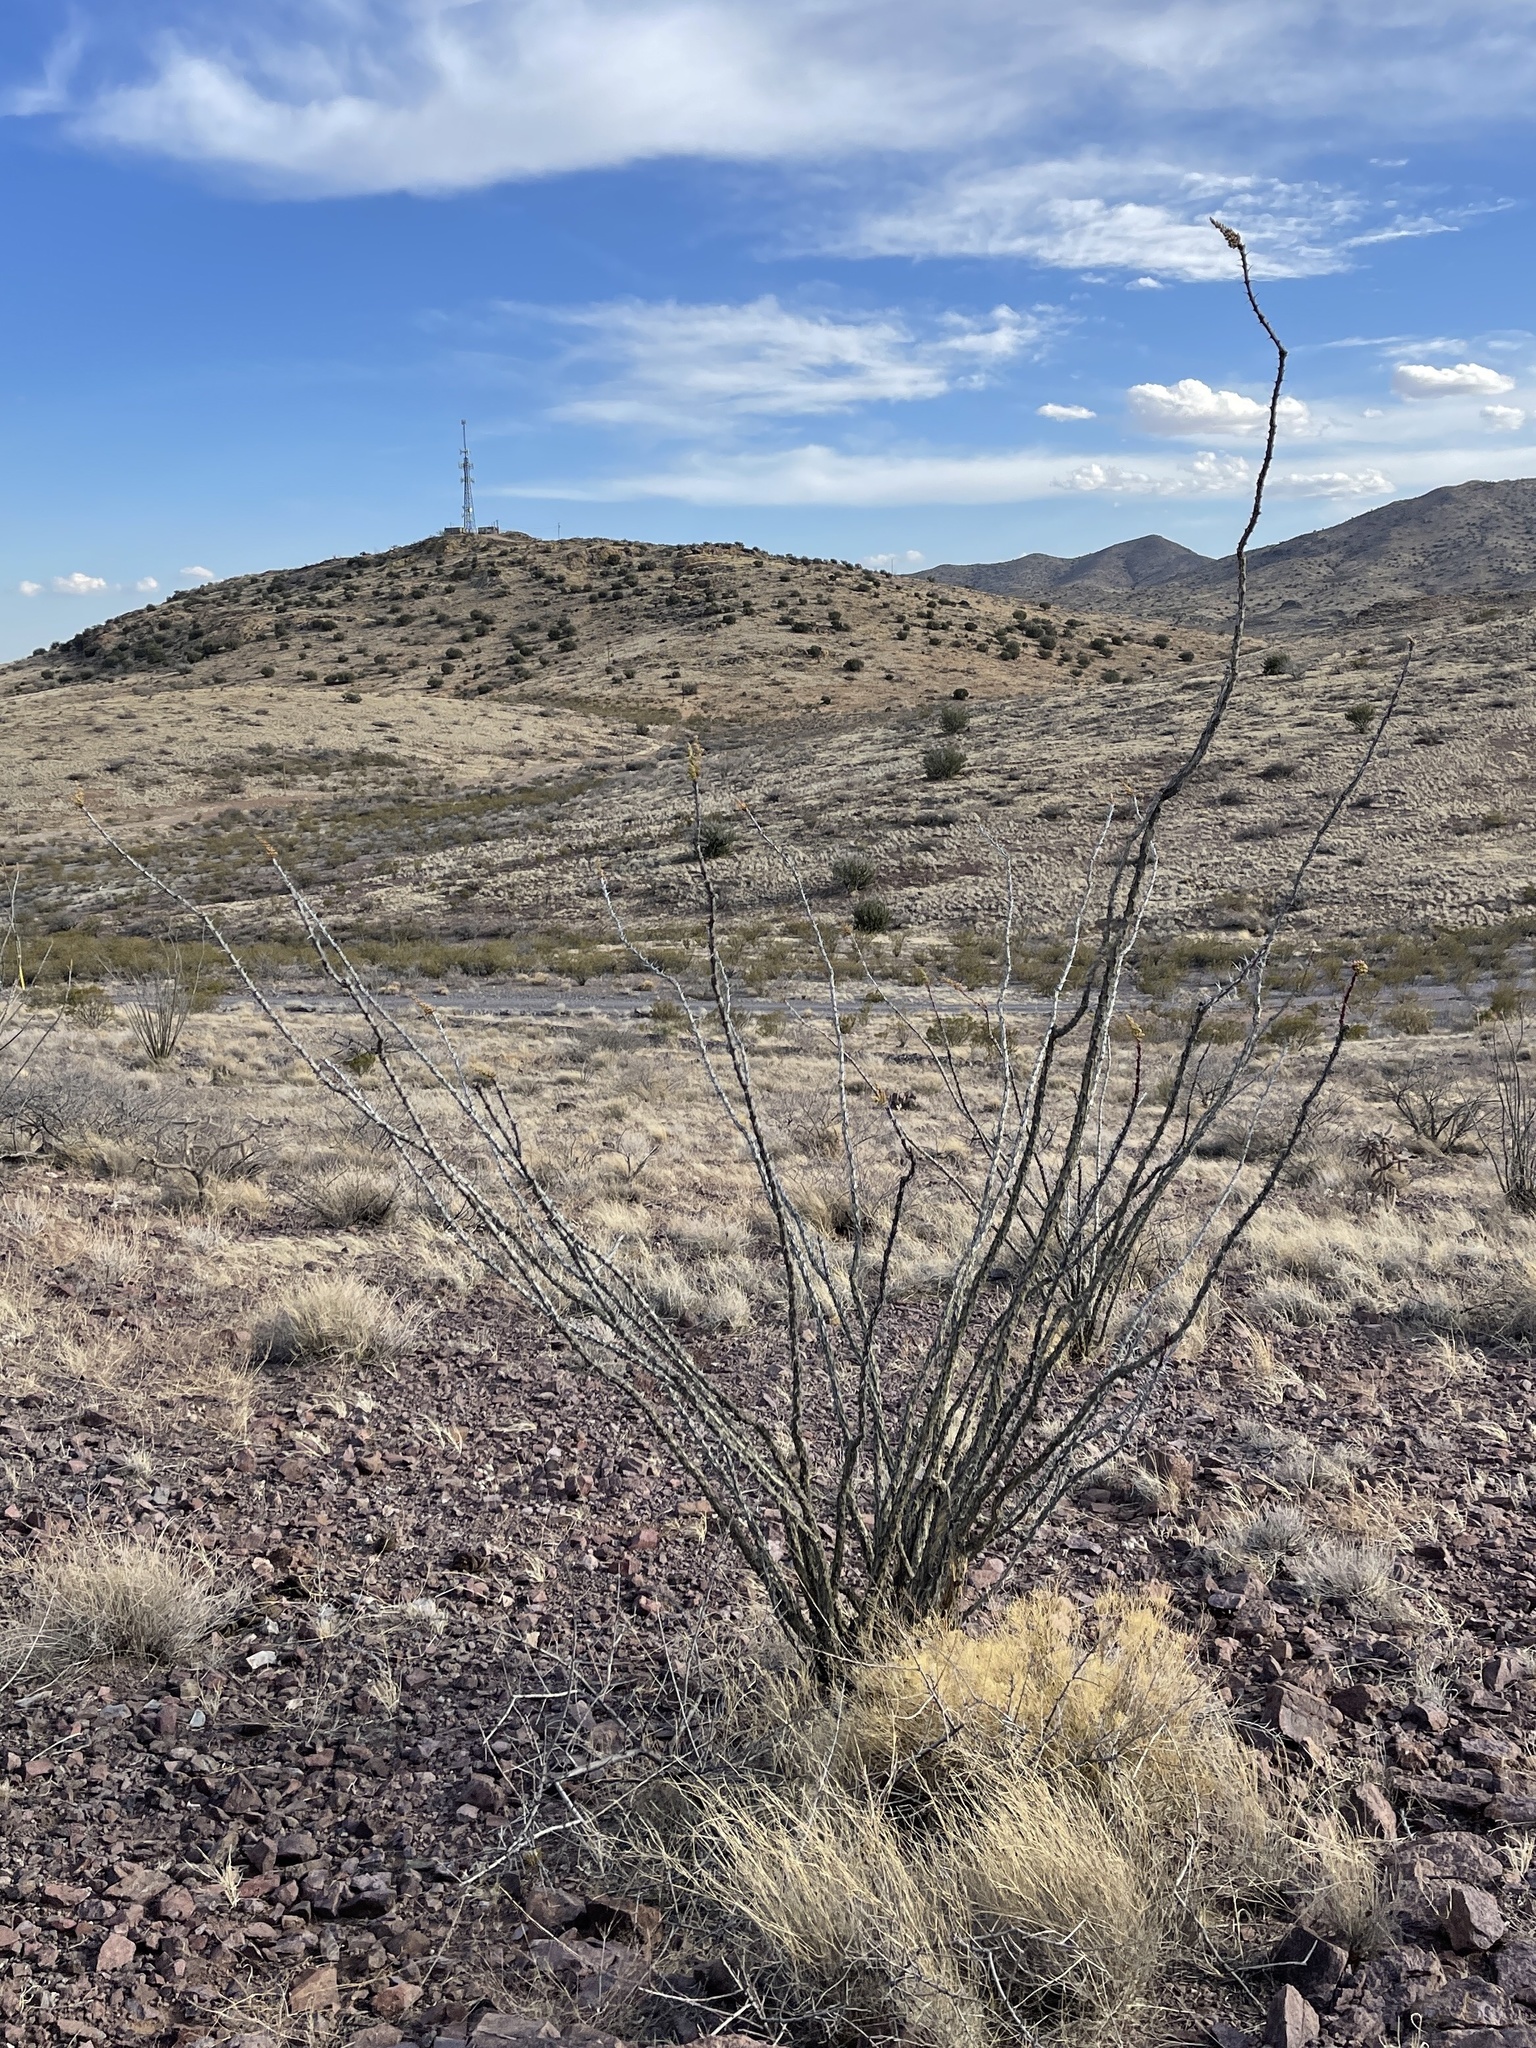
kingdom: Plantae
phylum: Tracheophyta
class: Magnoliopsida
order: Ericales
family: Fouquieriaceae
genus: Fouquieria
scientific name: Fouquieria splendens
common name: Vine-cactus
